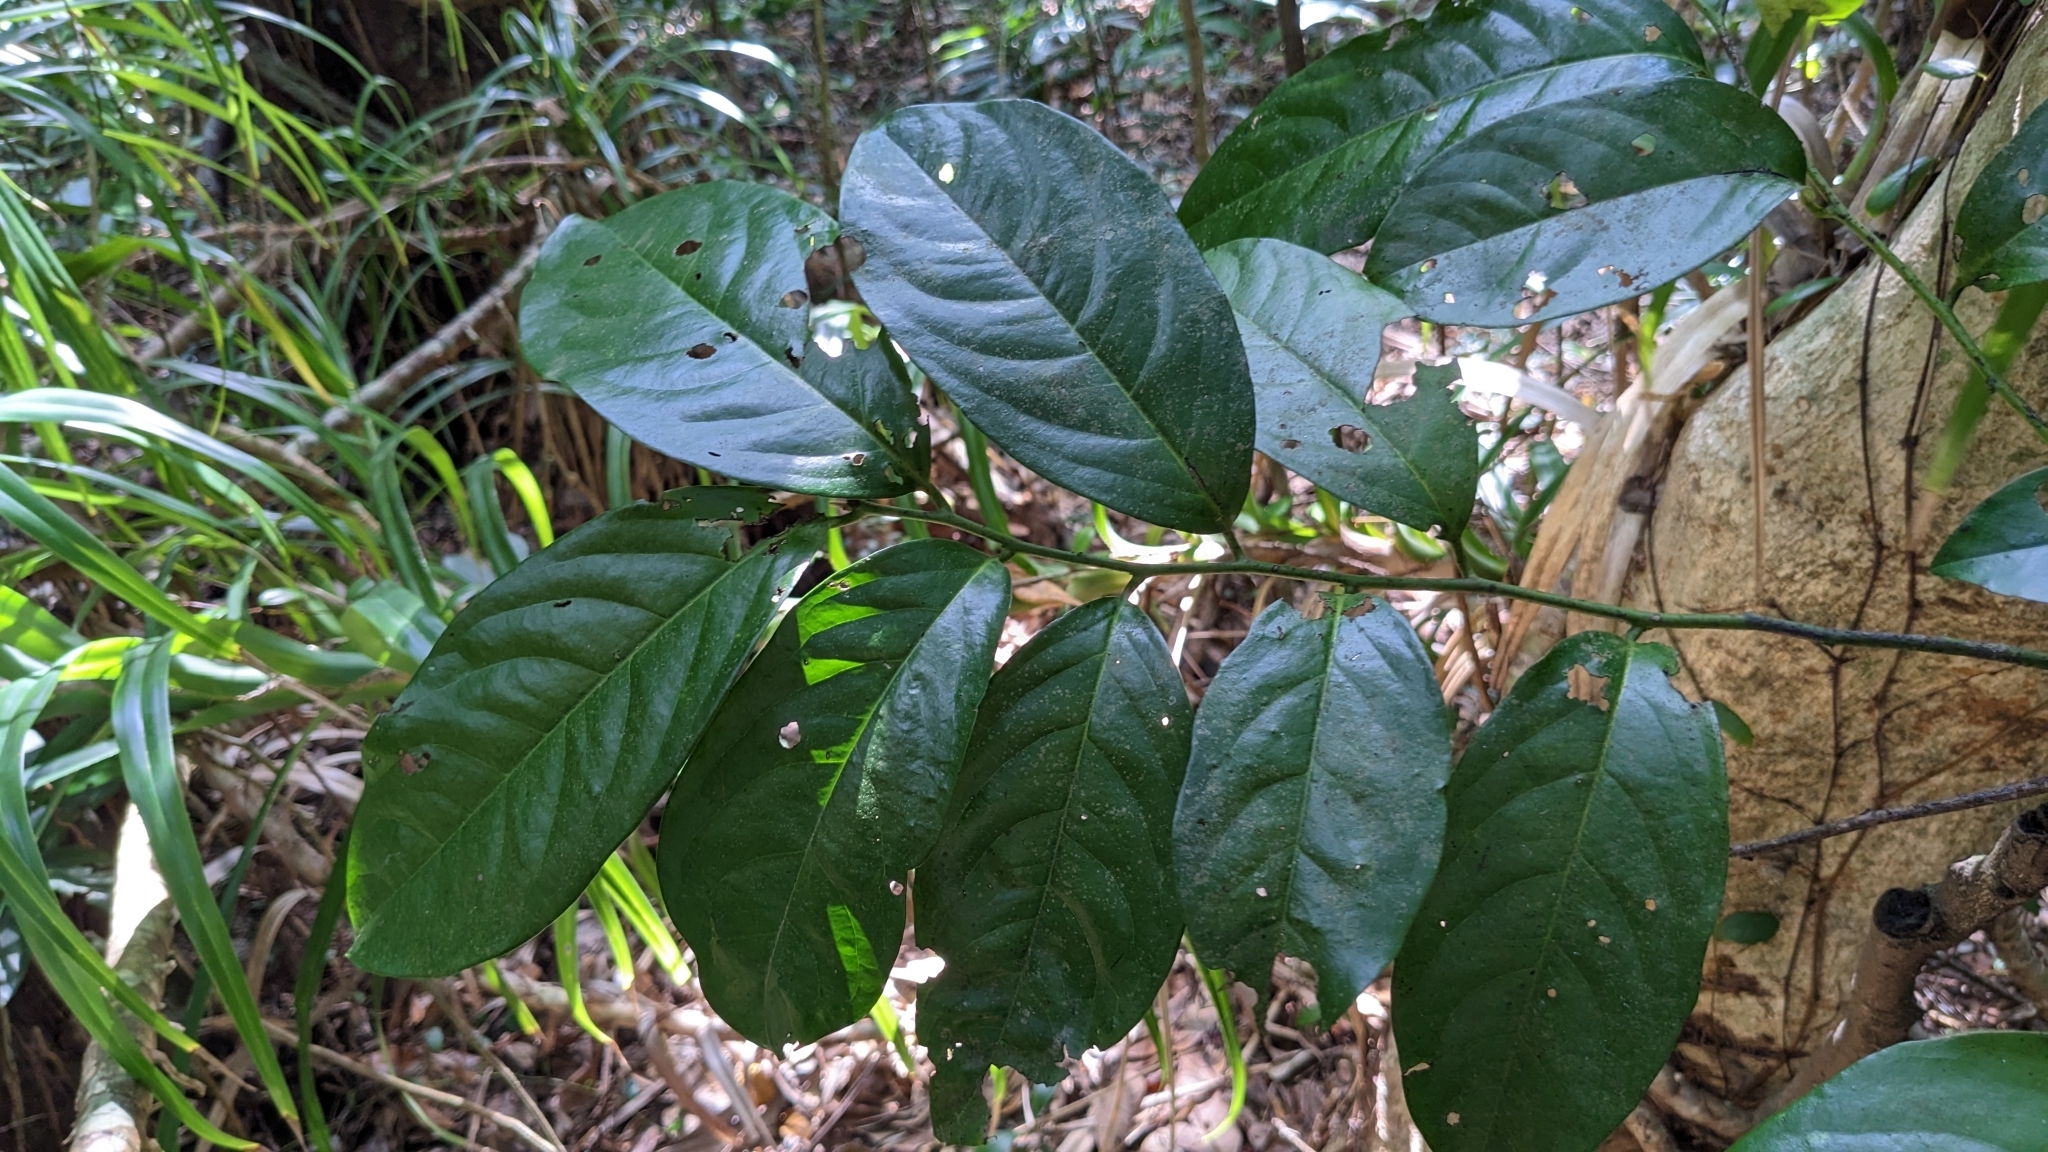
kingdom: Plantae
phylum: Tracheophyta
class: Magnoliopsida
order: Ericales
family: Ebenaceae
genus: Diospyros
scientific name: Diospyros maritima
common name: Malaysian persimmon
